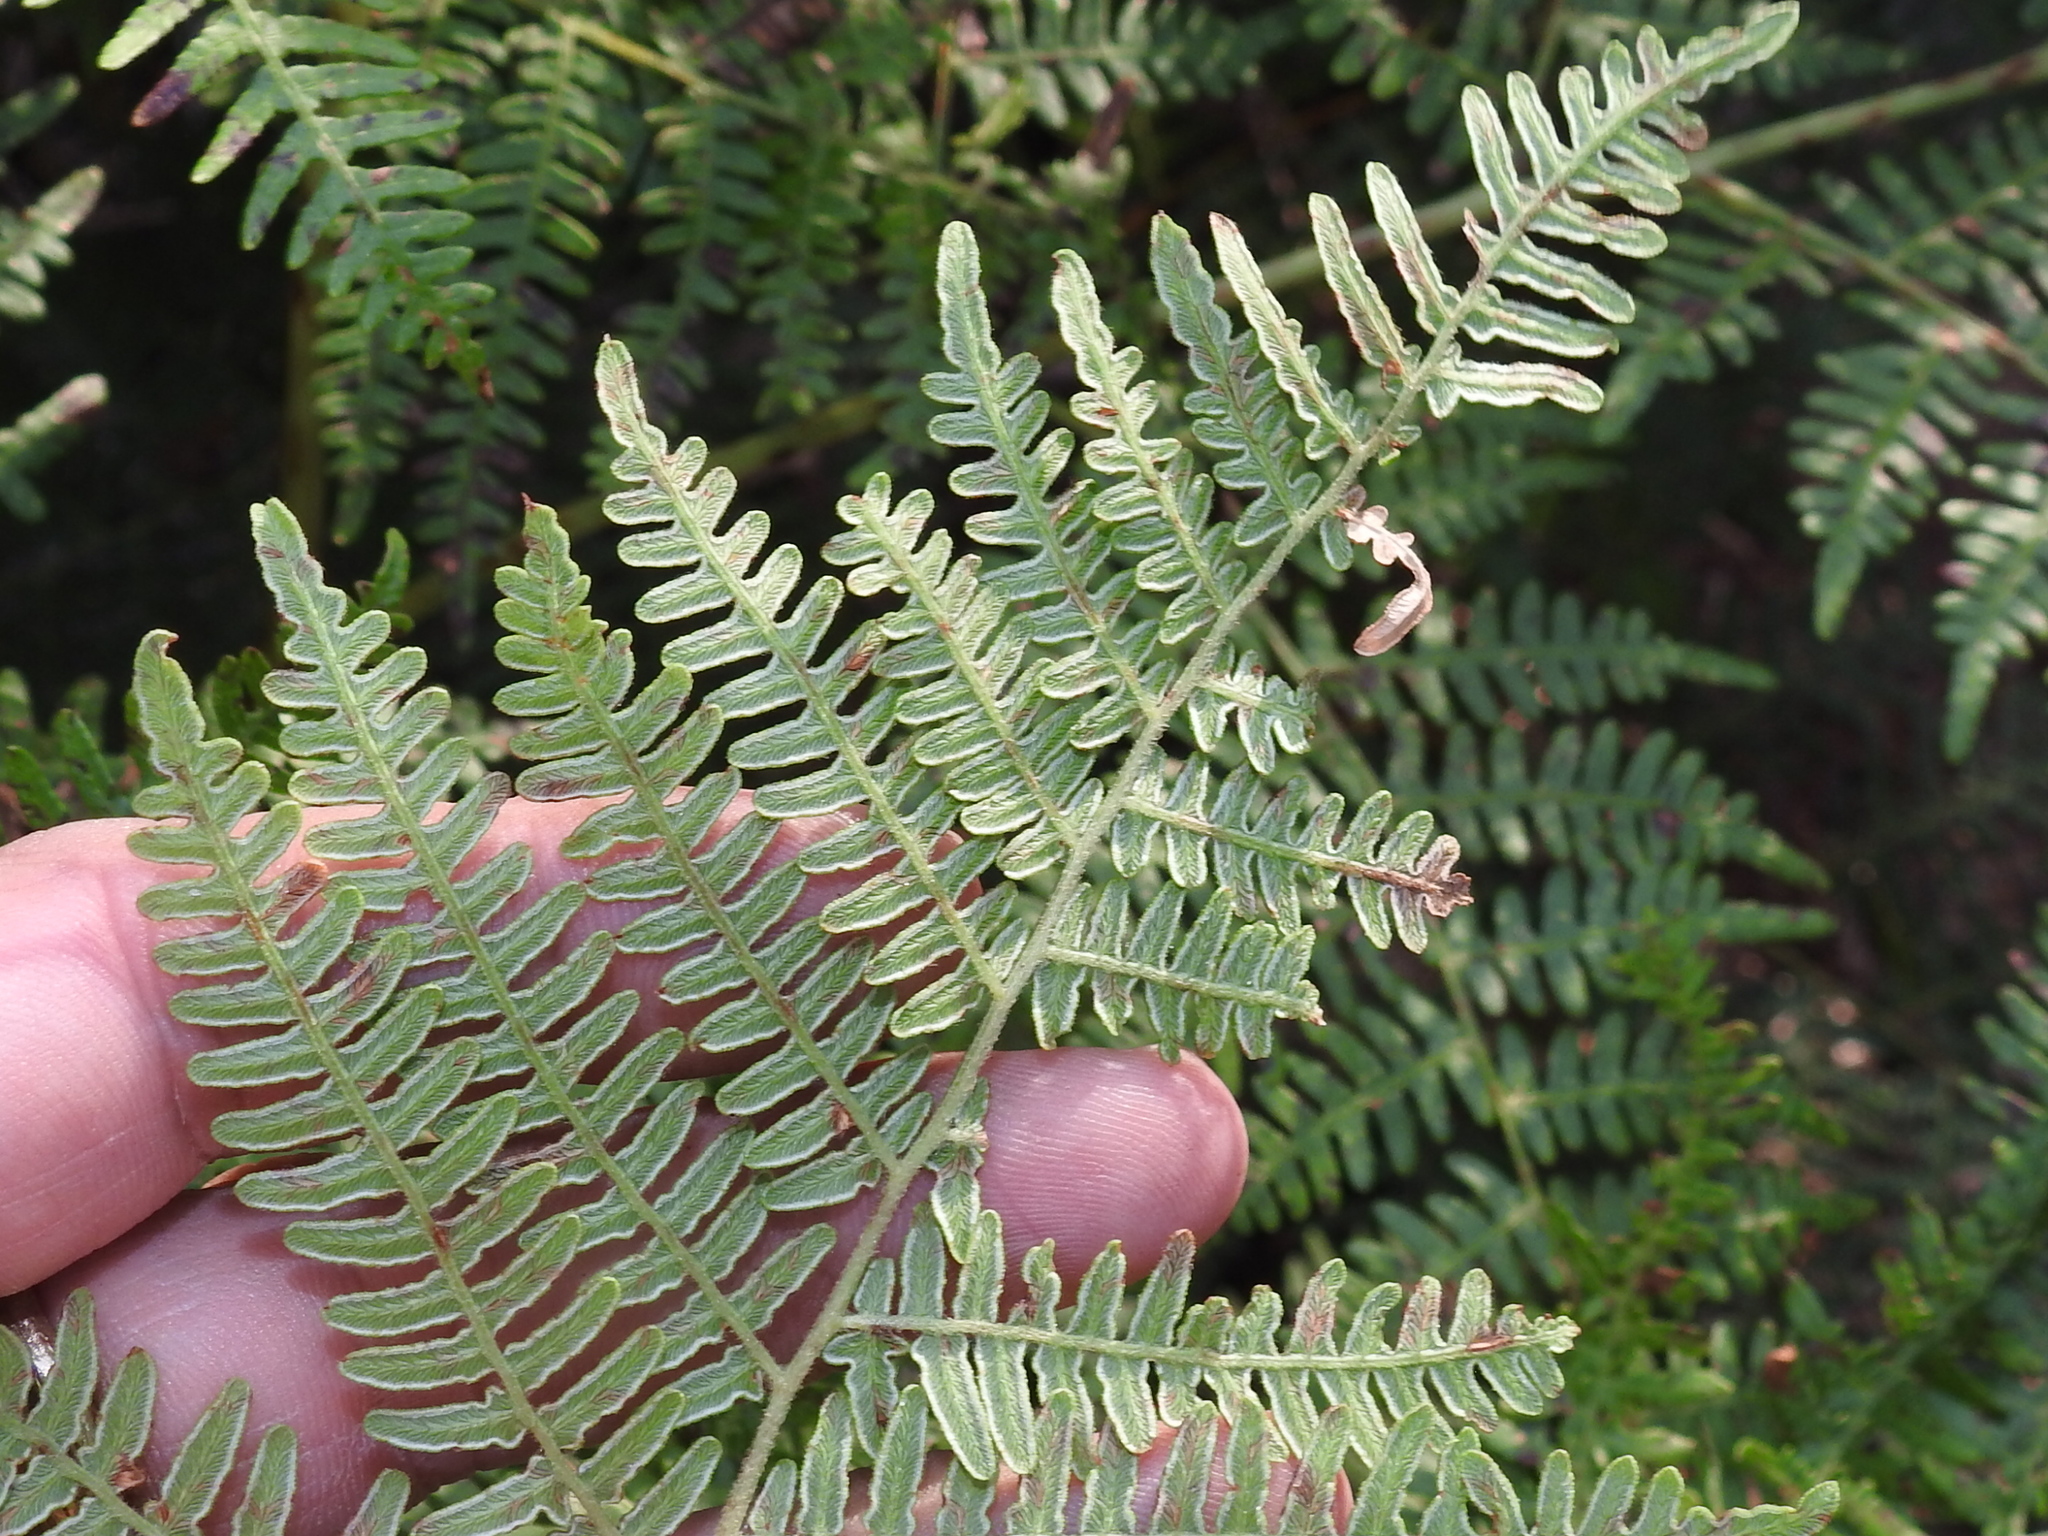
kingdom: Plantae
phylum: Tracheophyta
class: Polypodiopsida
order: Polypodiales
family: Dennstaedtiaceae
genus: Pteridium
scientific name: Pteridium aquilinum
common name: Bracken
